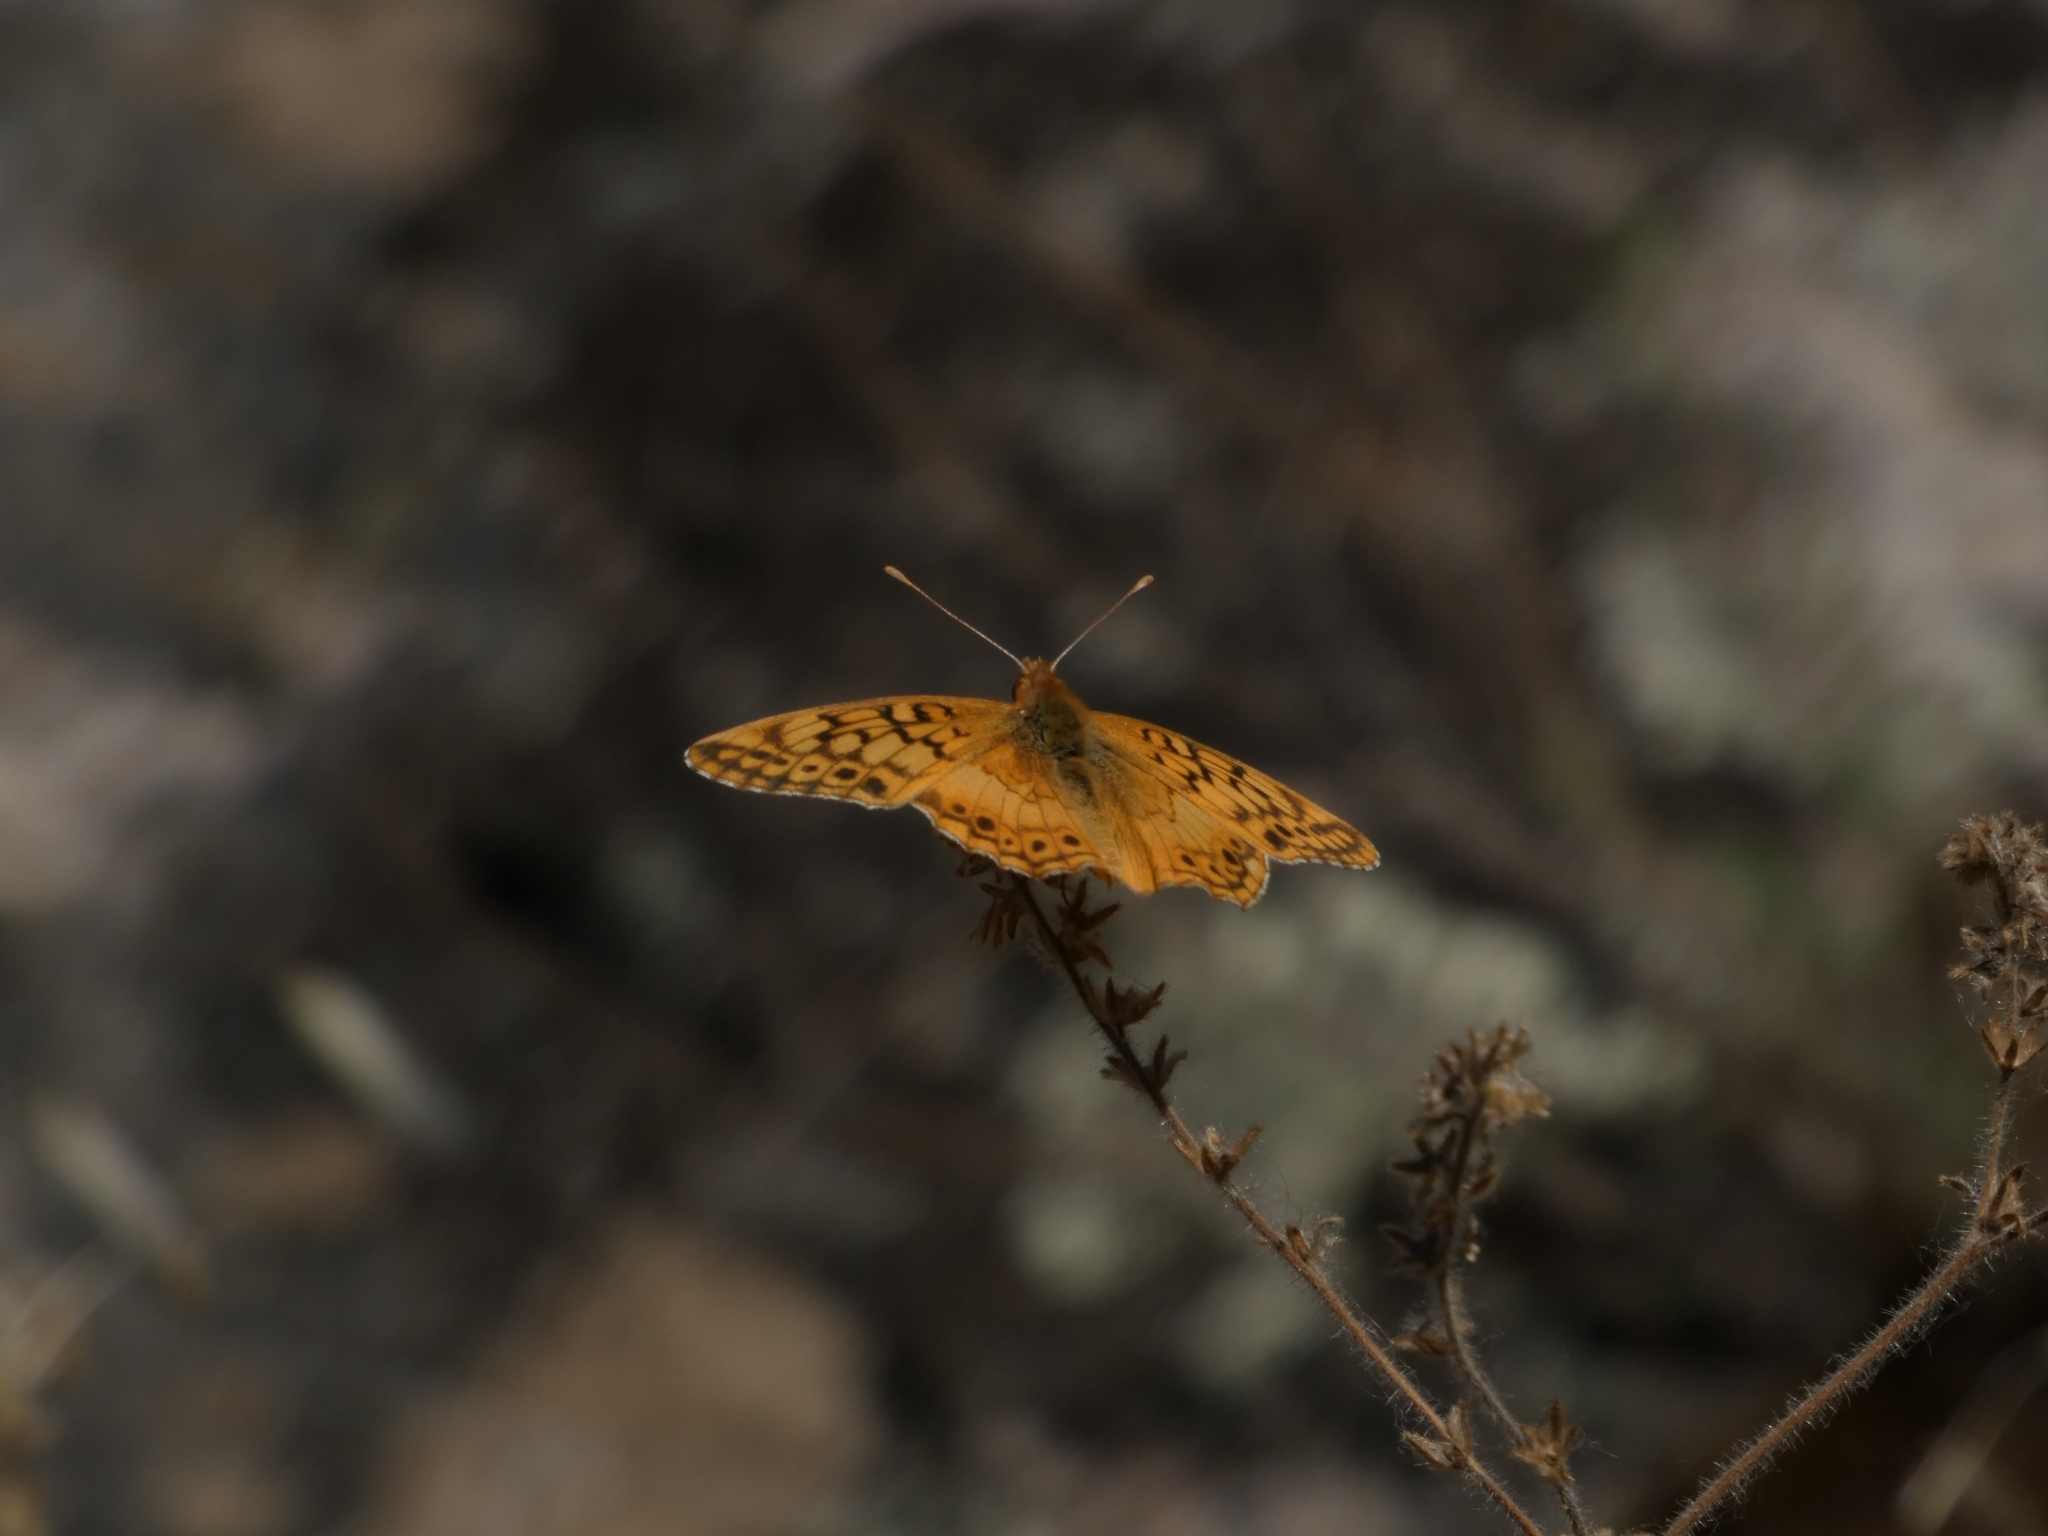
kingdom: Animalia
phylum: Arthropoda
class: Insecta
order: Lepidoptera
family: Nymphalidae
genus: Euptoieta
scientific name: Euptoieta hortensia
